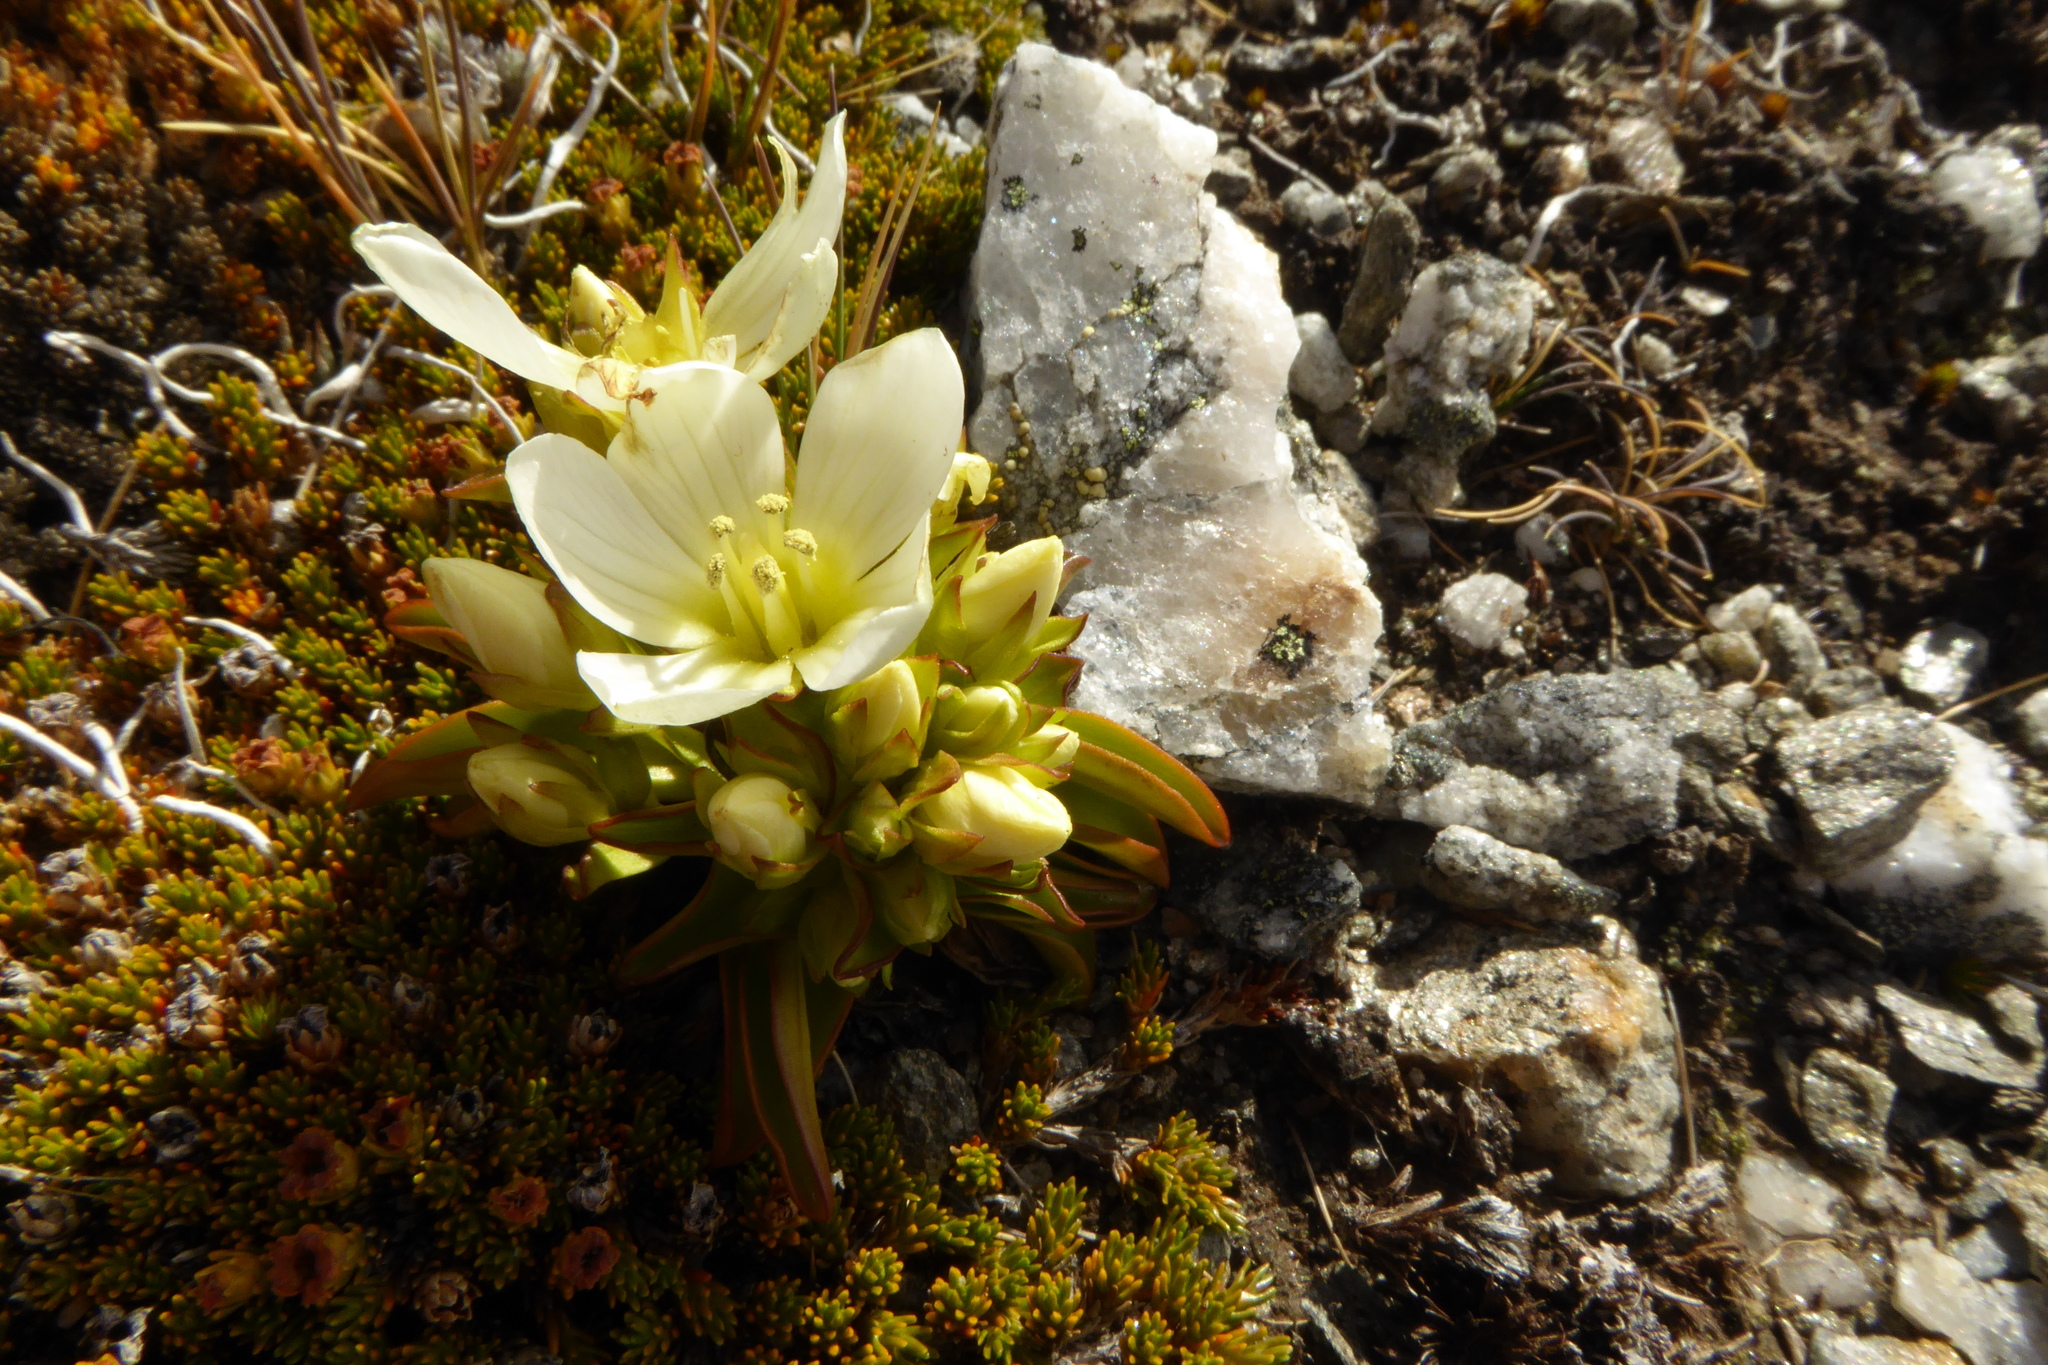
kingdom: Plantae
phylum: Tracheophyta
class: Magnoliopsida
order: Gentianales
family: Gentianaceae
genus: Gentianella
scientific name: Gentianella divisa
